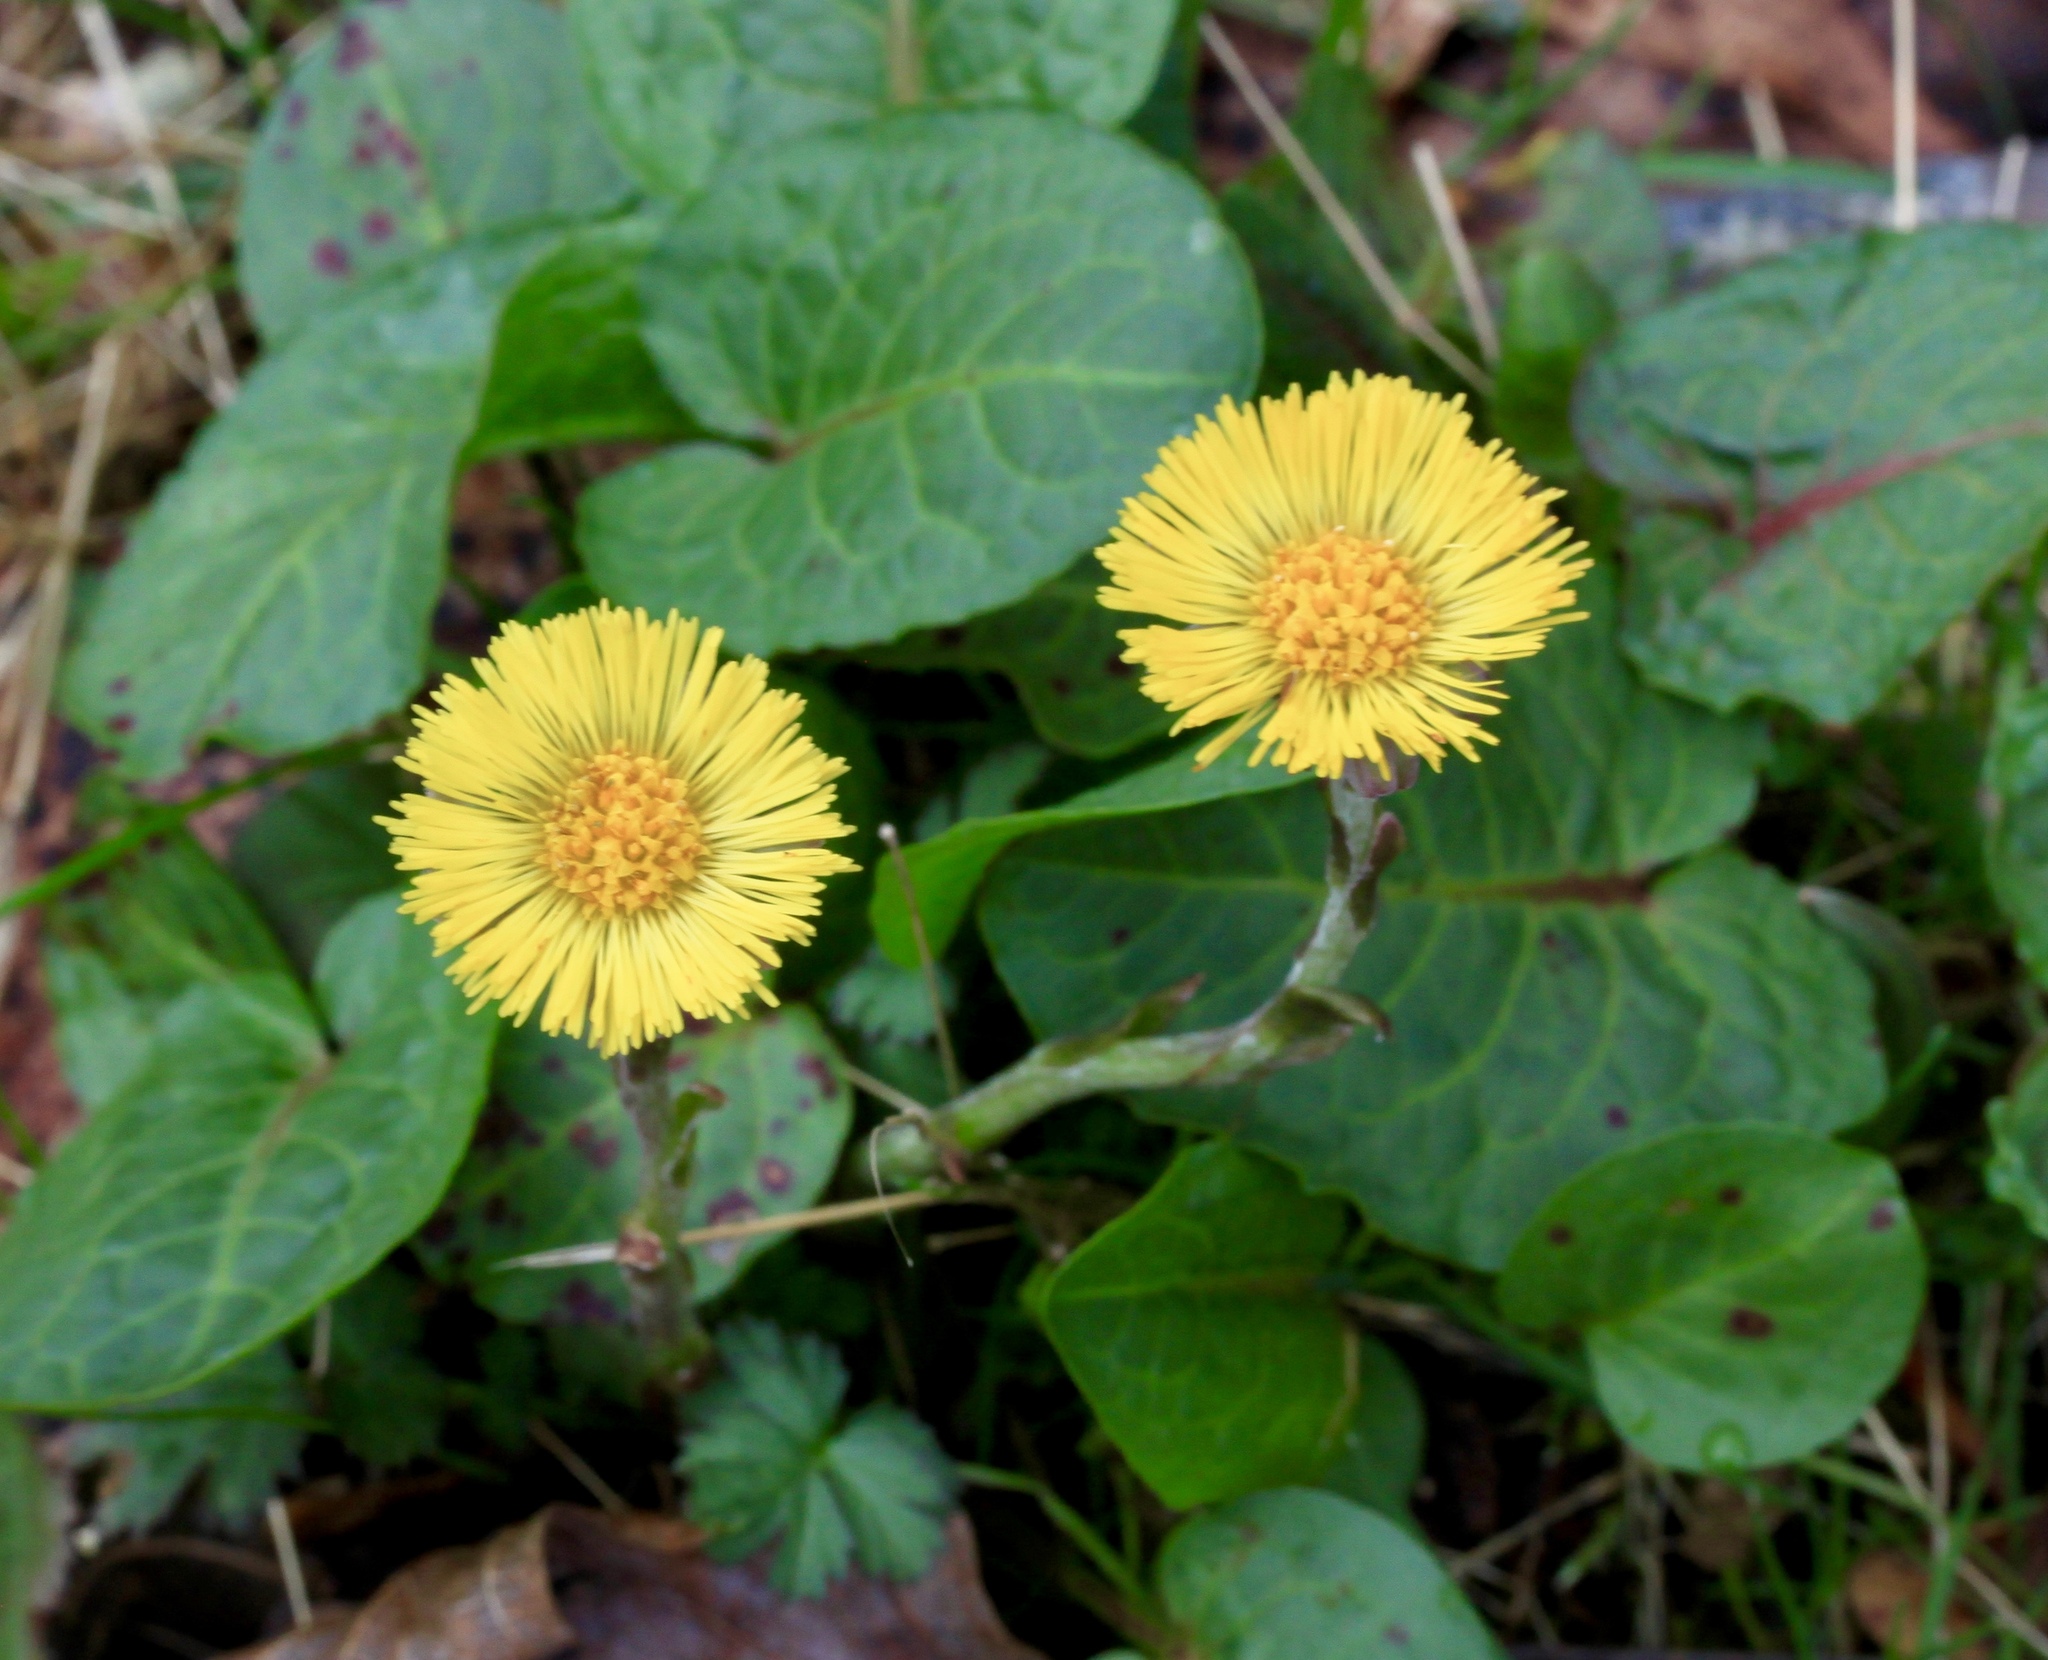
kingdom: Plantae
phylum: Tracheophyta
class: Magnoliopsida
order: Asterales
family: Asteraceae
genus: Tussilago
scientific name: Tussilago farfara
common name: Coltsfoot
